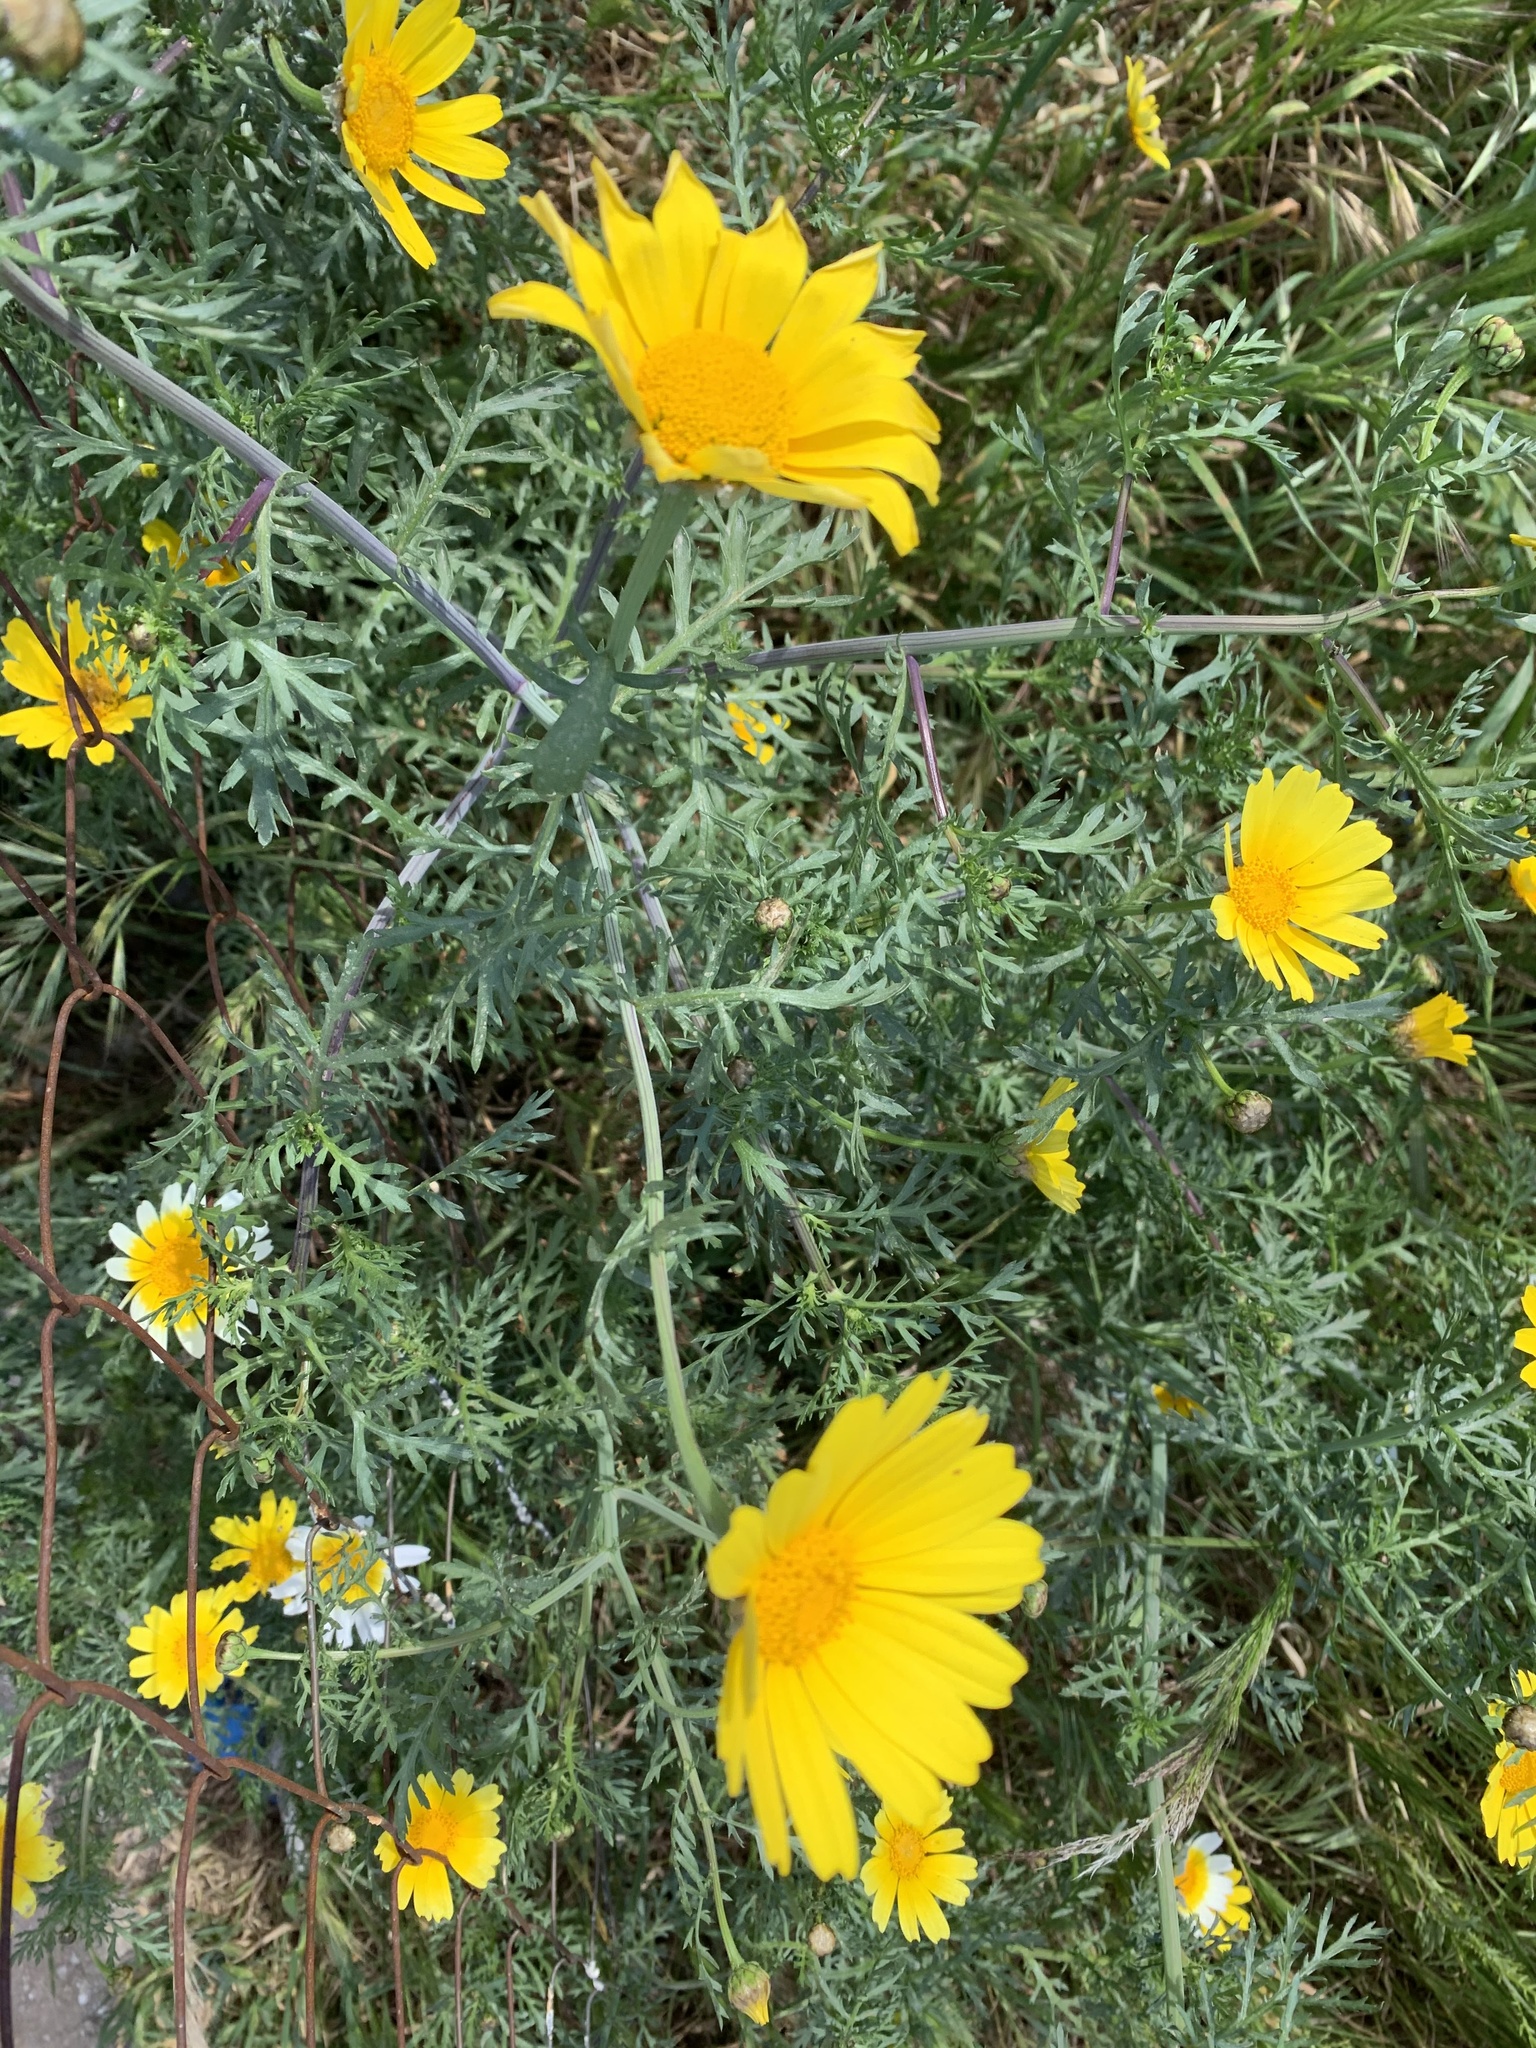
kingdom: Plantae
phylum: Tracheophyta
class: Magnoliopsida
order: Asterales
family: Asteraceae
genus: Glebionis
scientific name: Glebionis coronaria
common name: Crowndaisy
